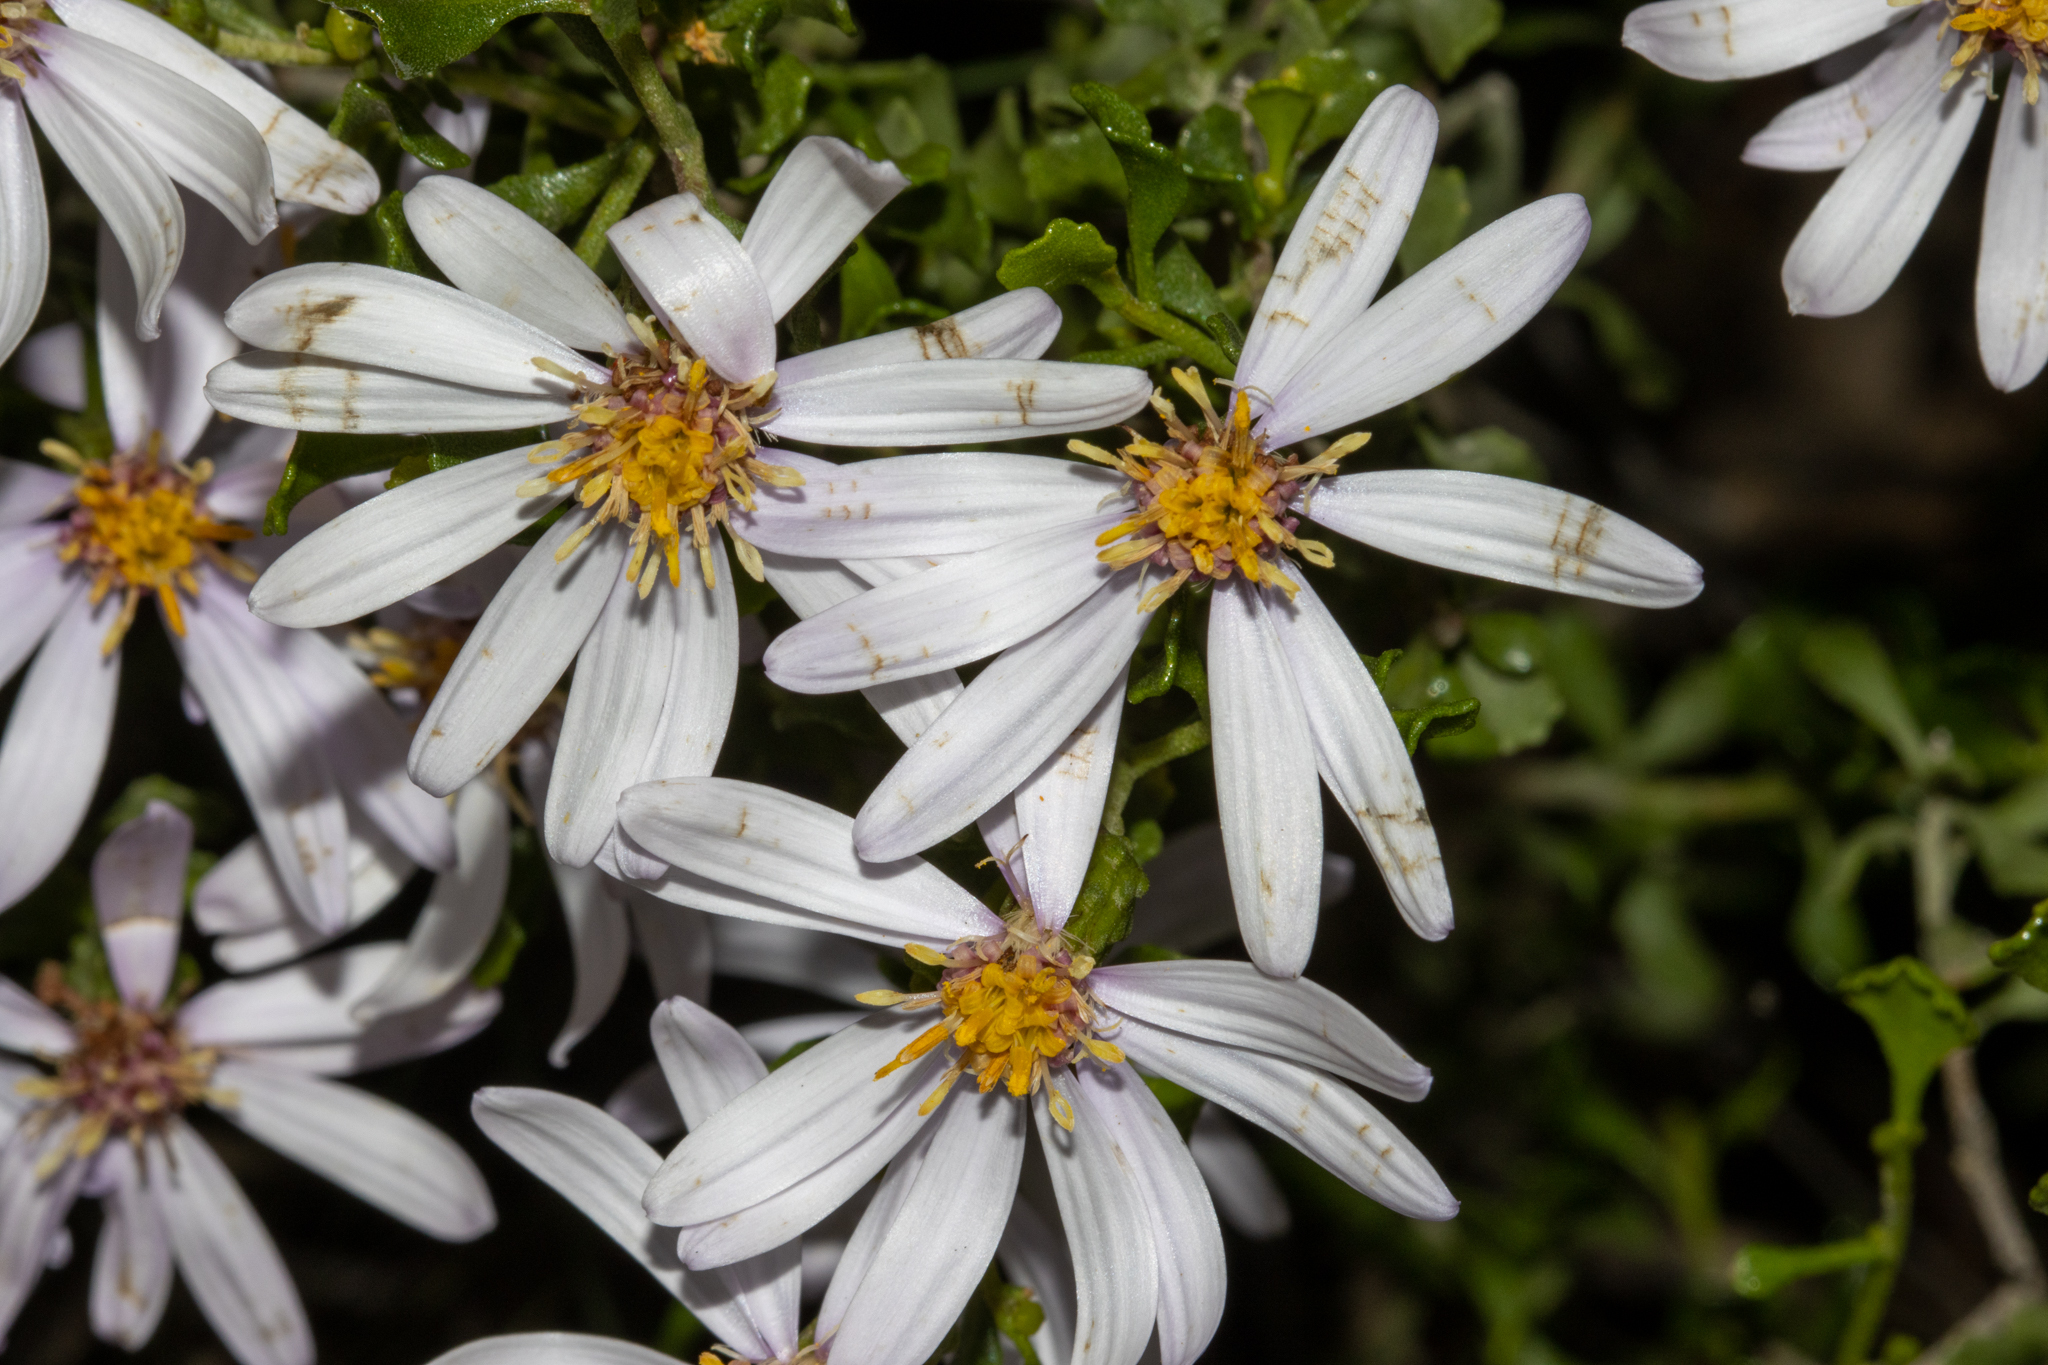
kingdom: Plantae
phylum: Tracheophyta
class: Magnoliopsida
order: Asterales
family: Asteraceae
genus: Walsholaria
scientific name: Walsholaria muelleri
